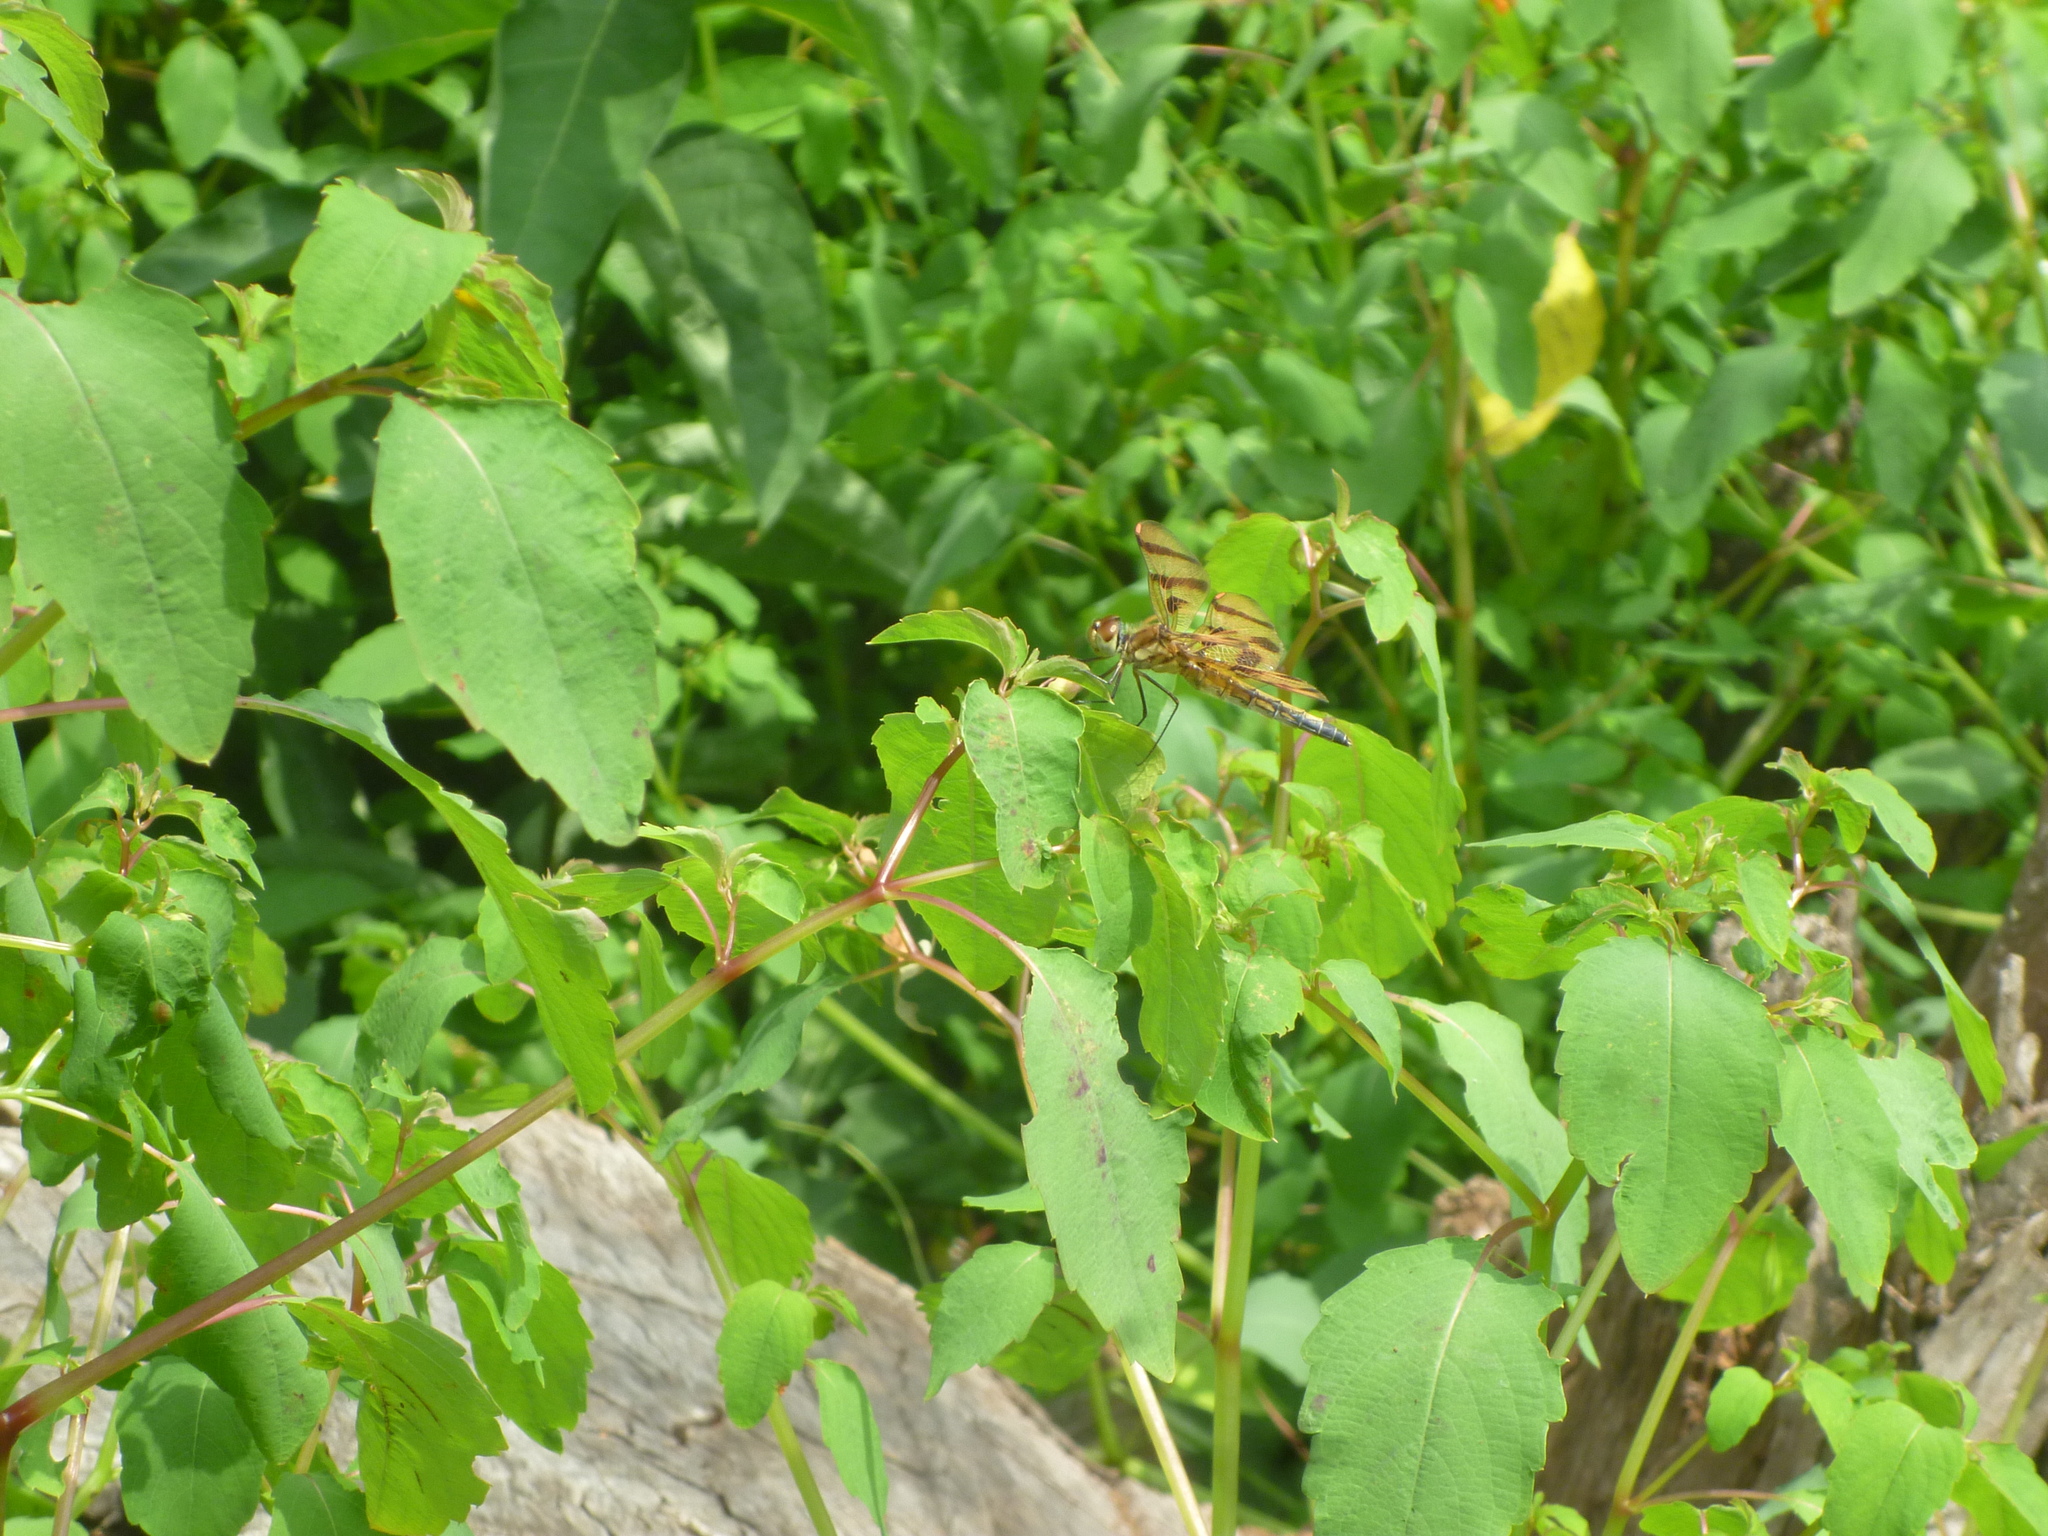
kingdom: Plantae
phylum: Tracheophyta
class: Magnoliopsida
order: Ericales
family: Balsaminaceae
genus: Impatiens
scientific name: Impatiens capensis
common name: Orange balsam
